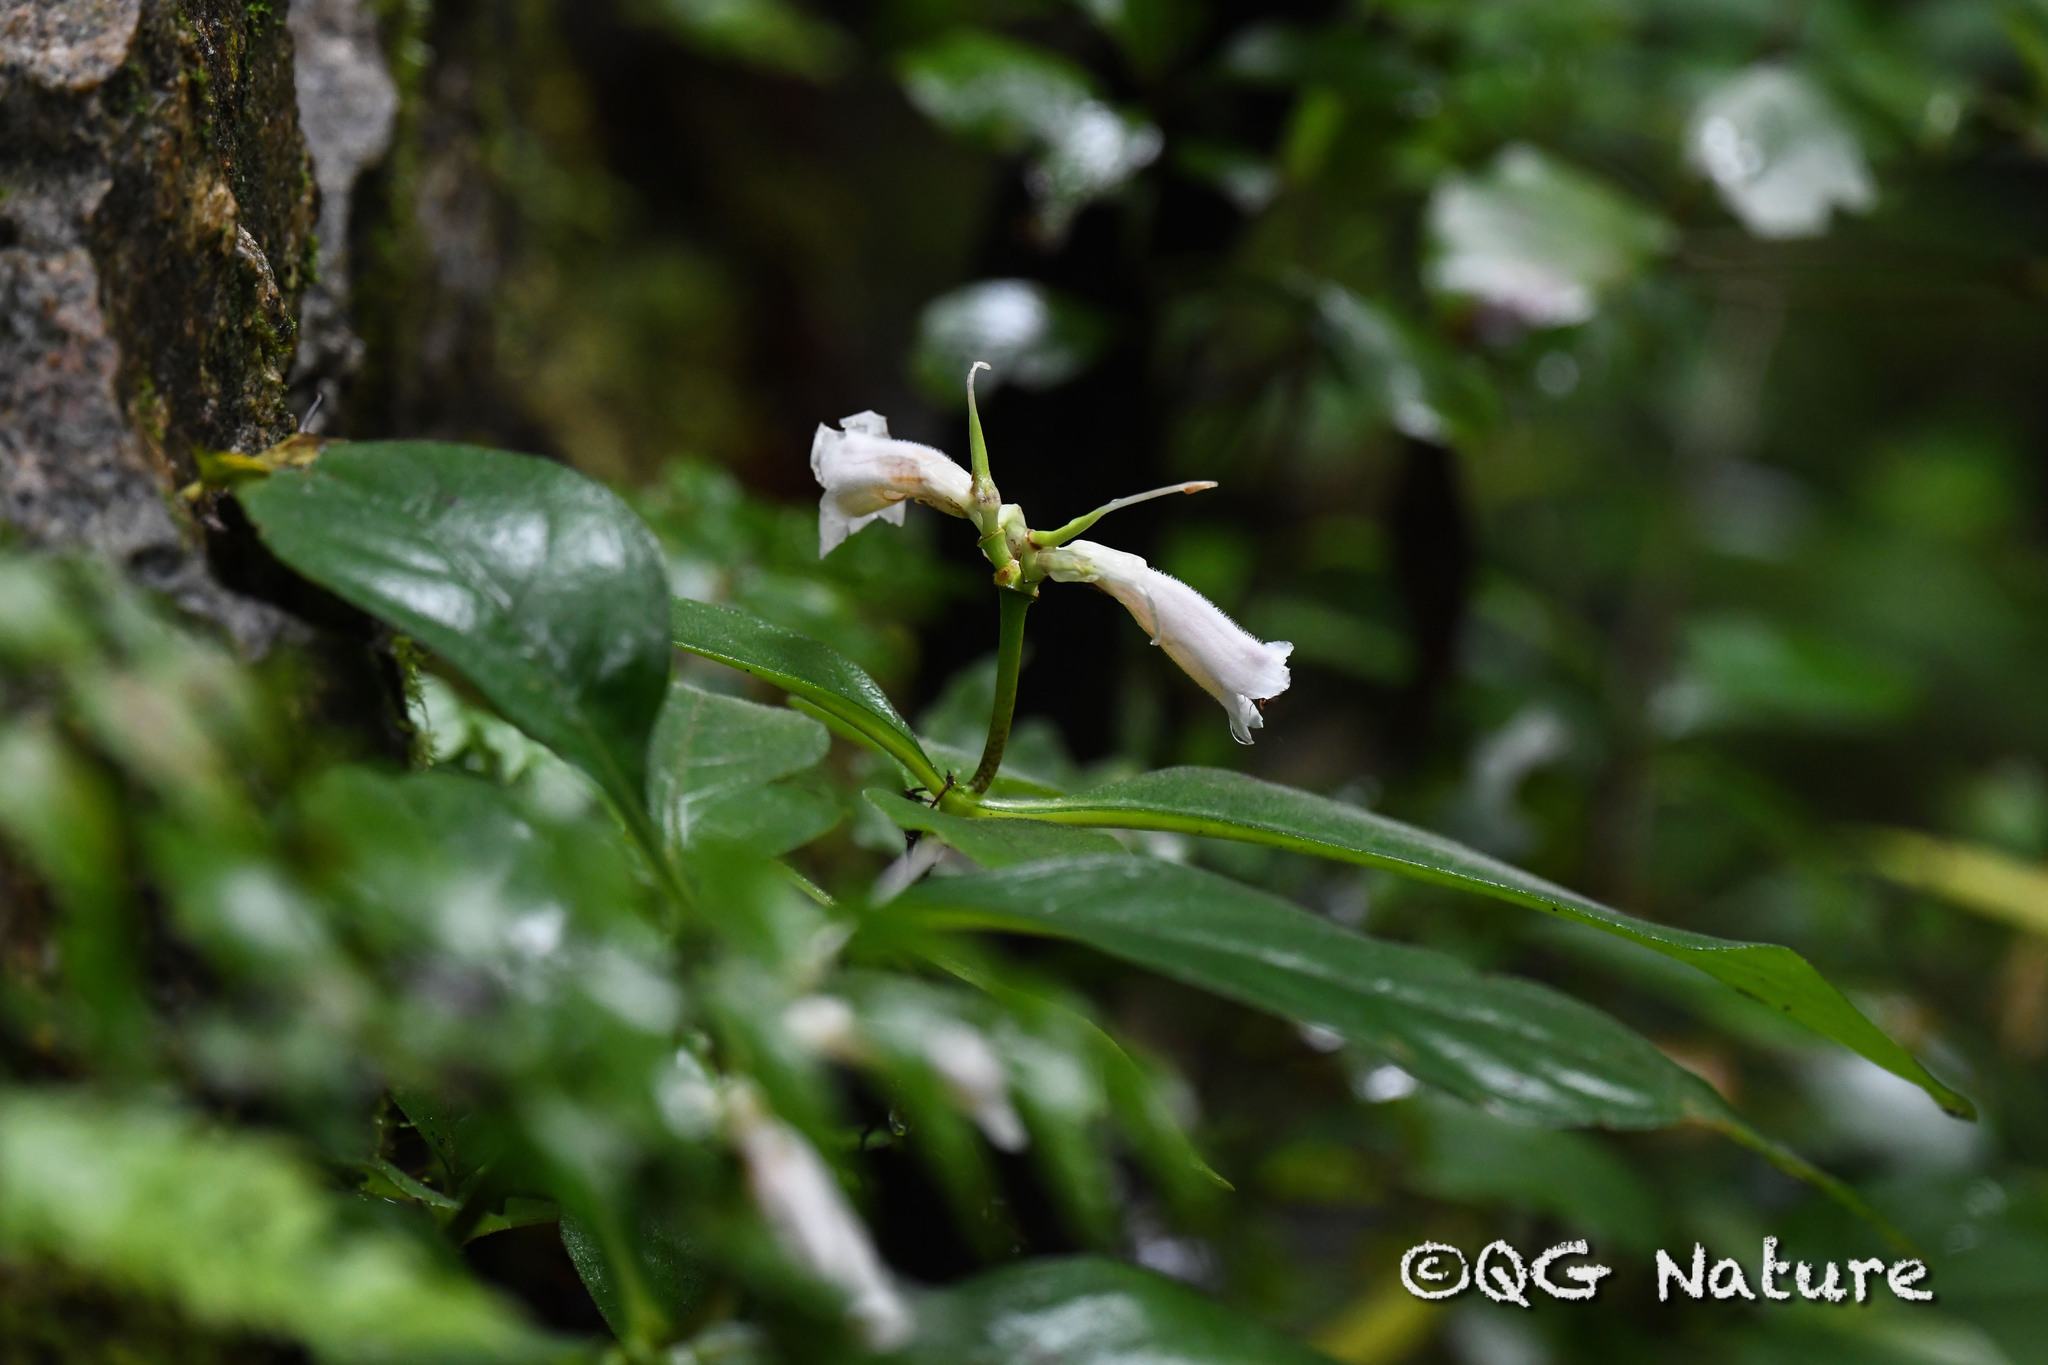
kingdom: Plantae
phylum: Tracheophyta
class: Magnoliopsida
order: Lamiales
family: Gesneriaceae
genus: Hemiboea
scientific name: Hemiboea subcapitata
